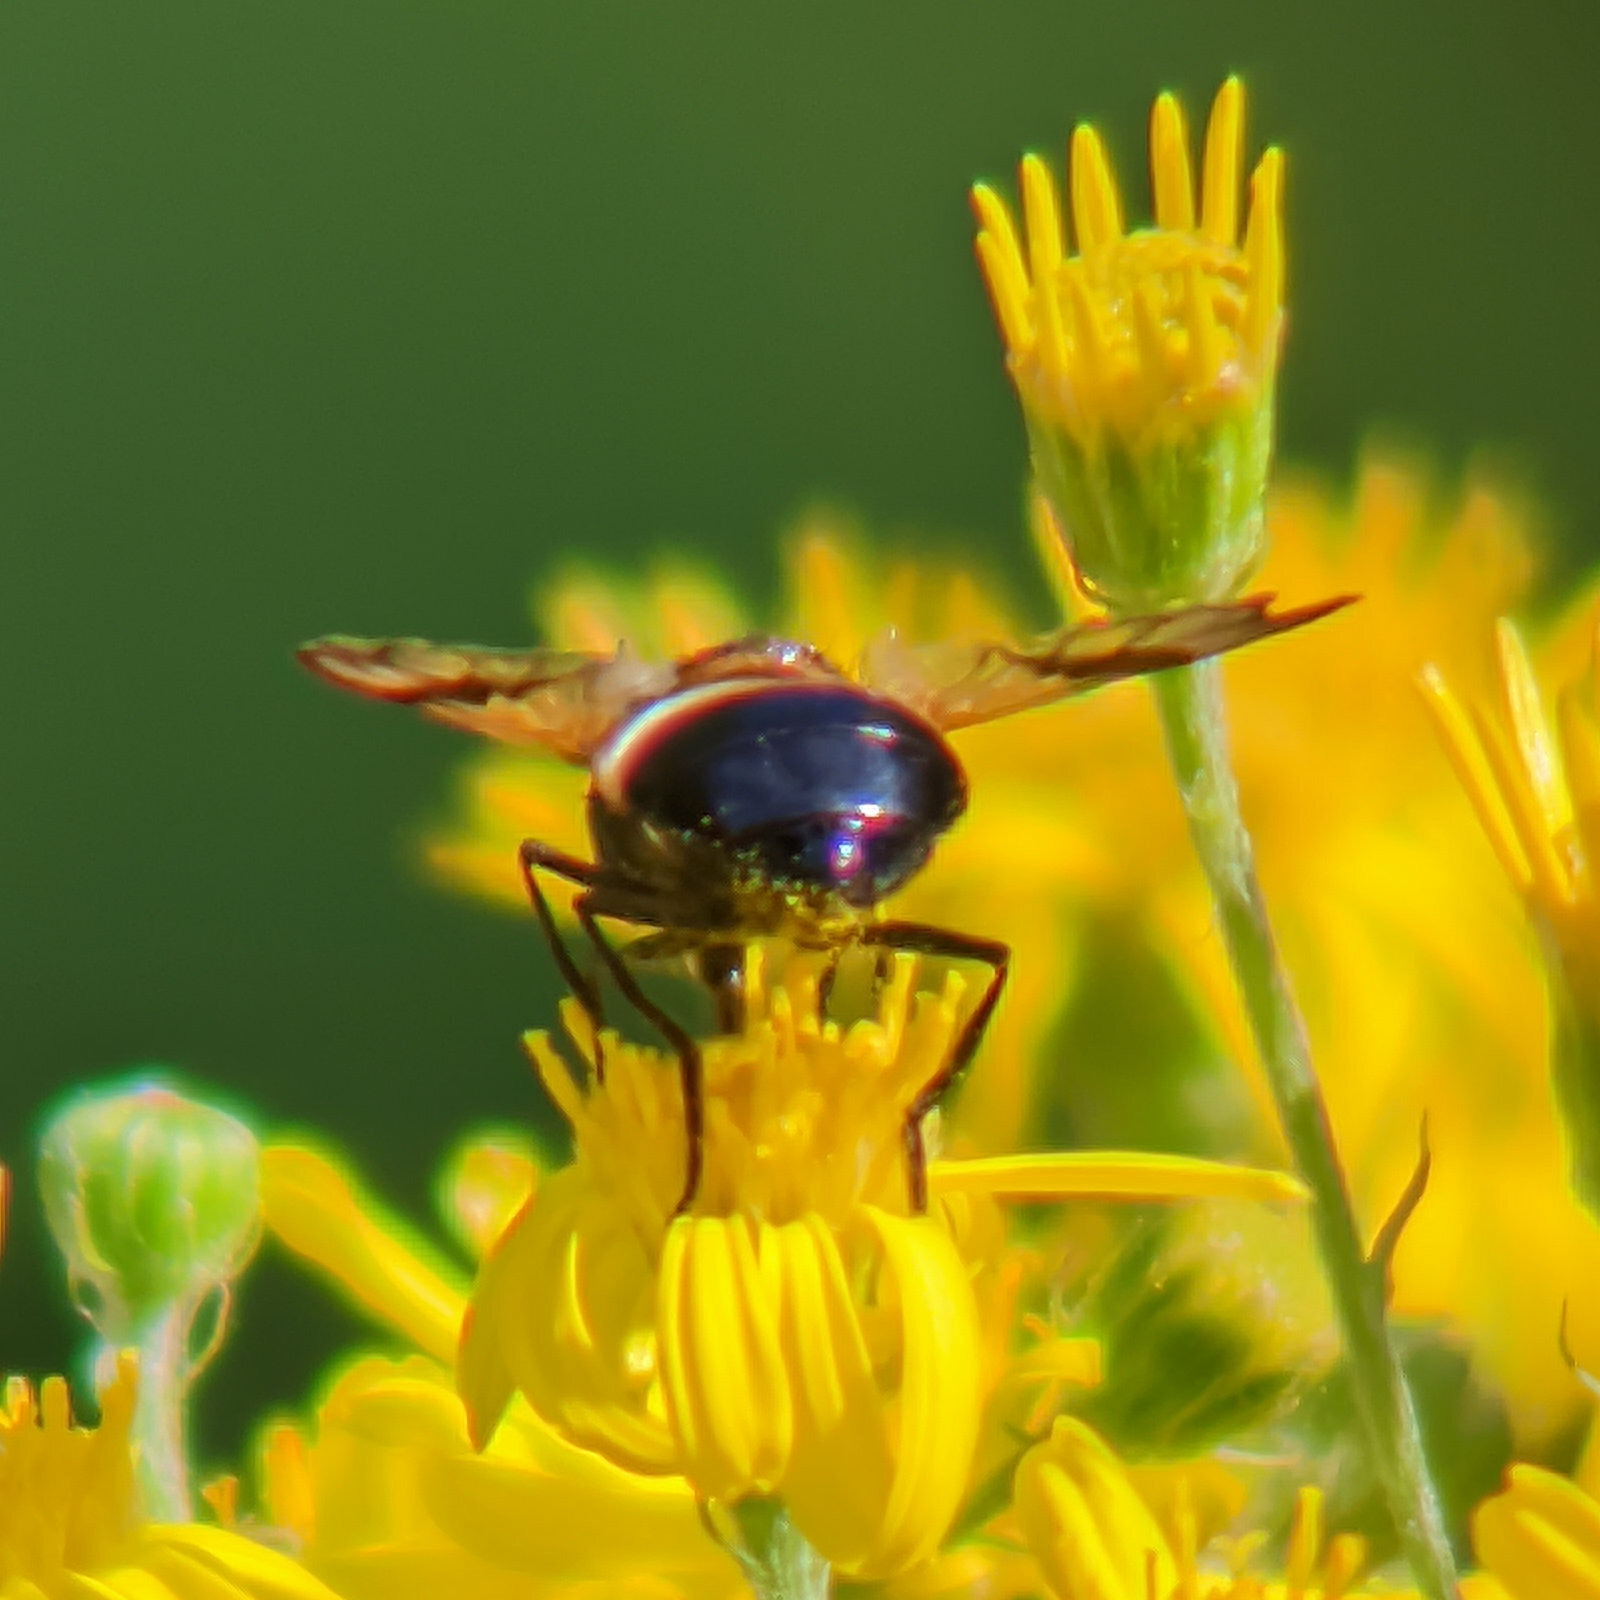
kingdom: Animalia
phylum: Arthropoda
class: Insecta
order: Diptera
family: Syrphidae
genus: Volucella
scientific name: Volucella pellucens
